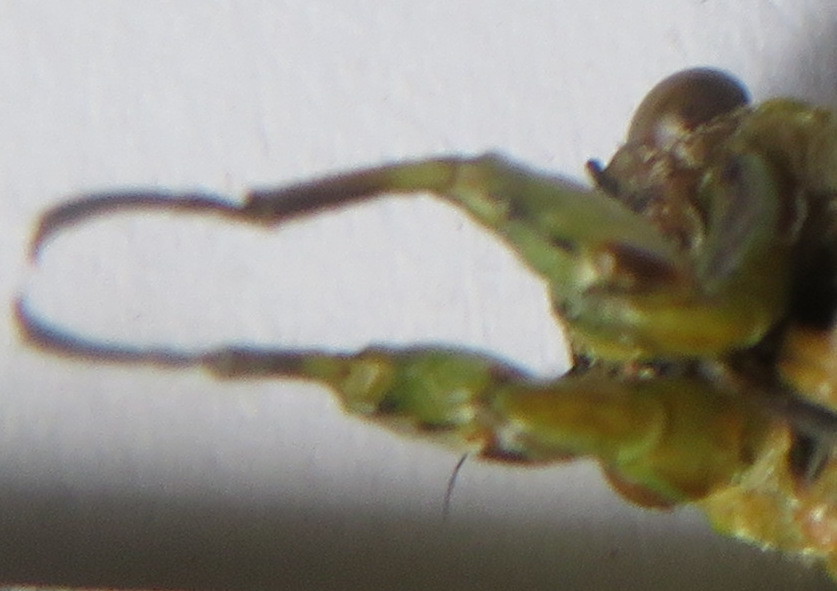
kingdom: Animalia
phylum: Arthropoda
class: Insecta
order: Hemiptera
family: Cicadidae
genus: Kikihia
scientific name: Kikihia scutellaris
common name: Lesser bronze cicada
